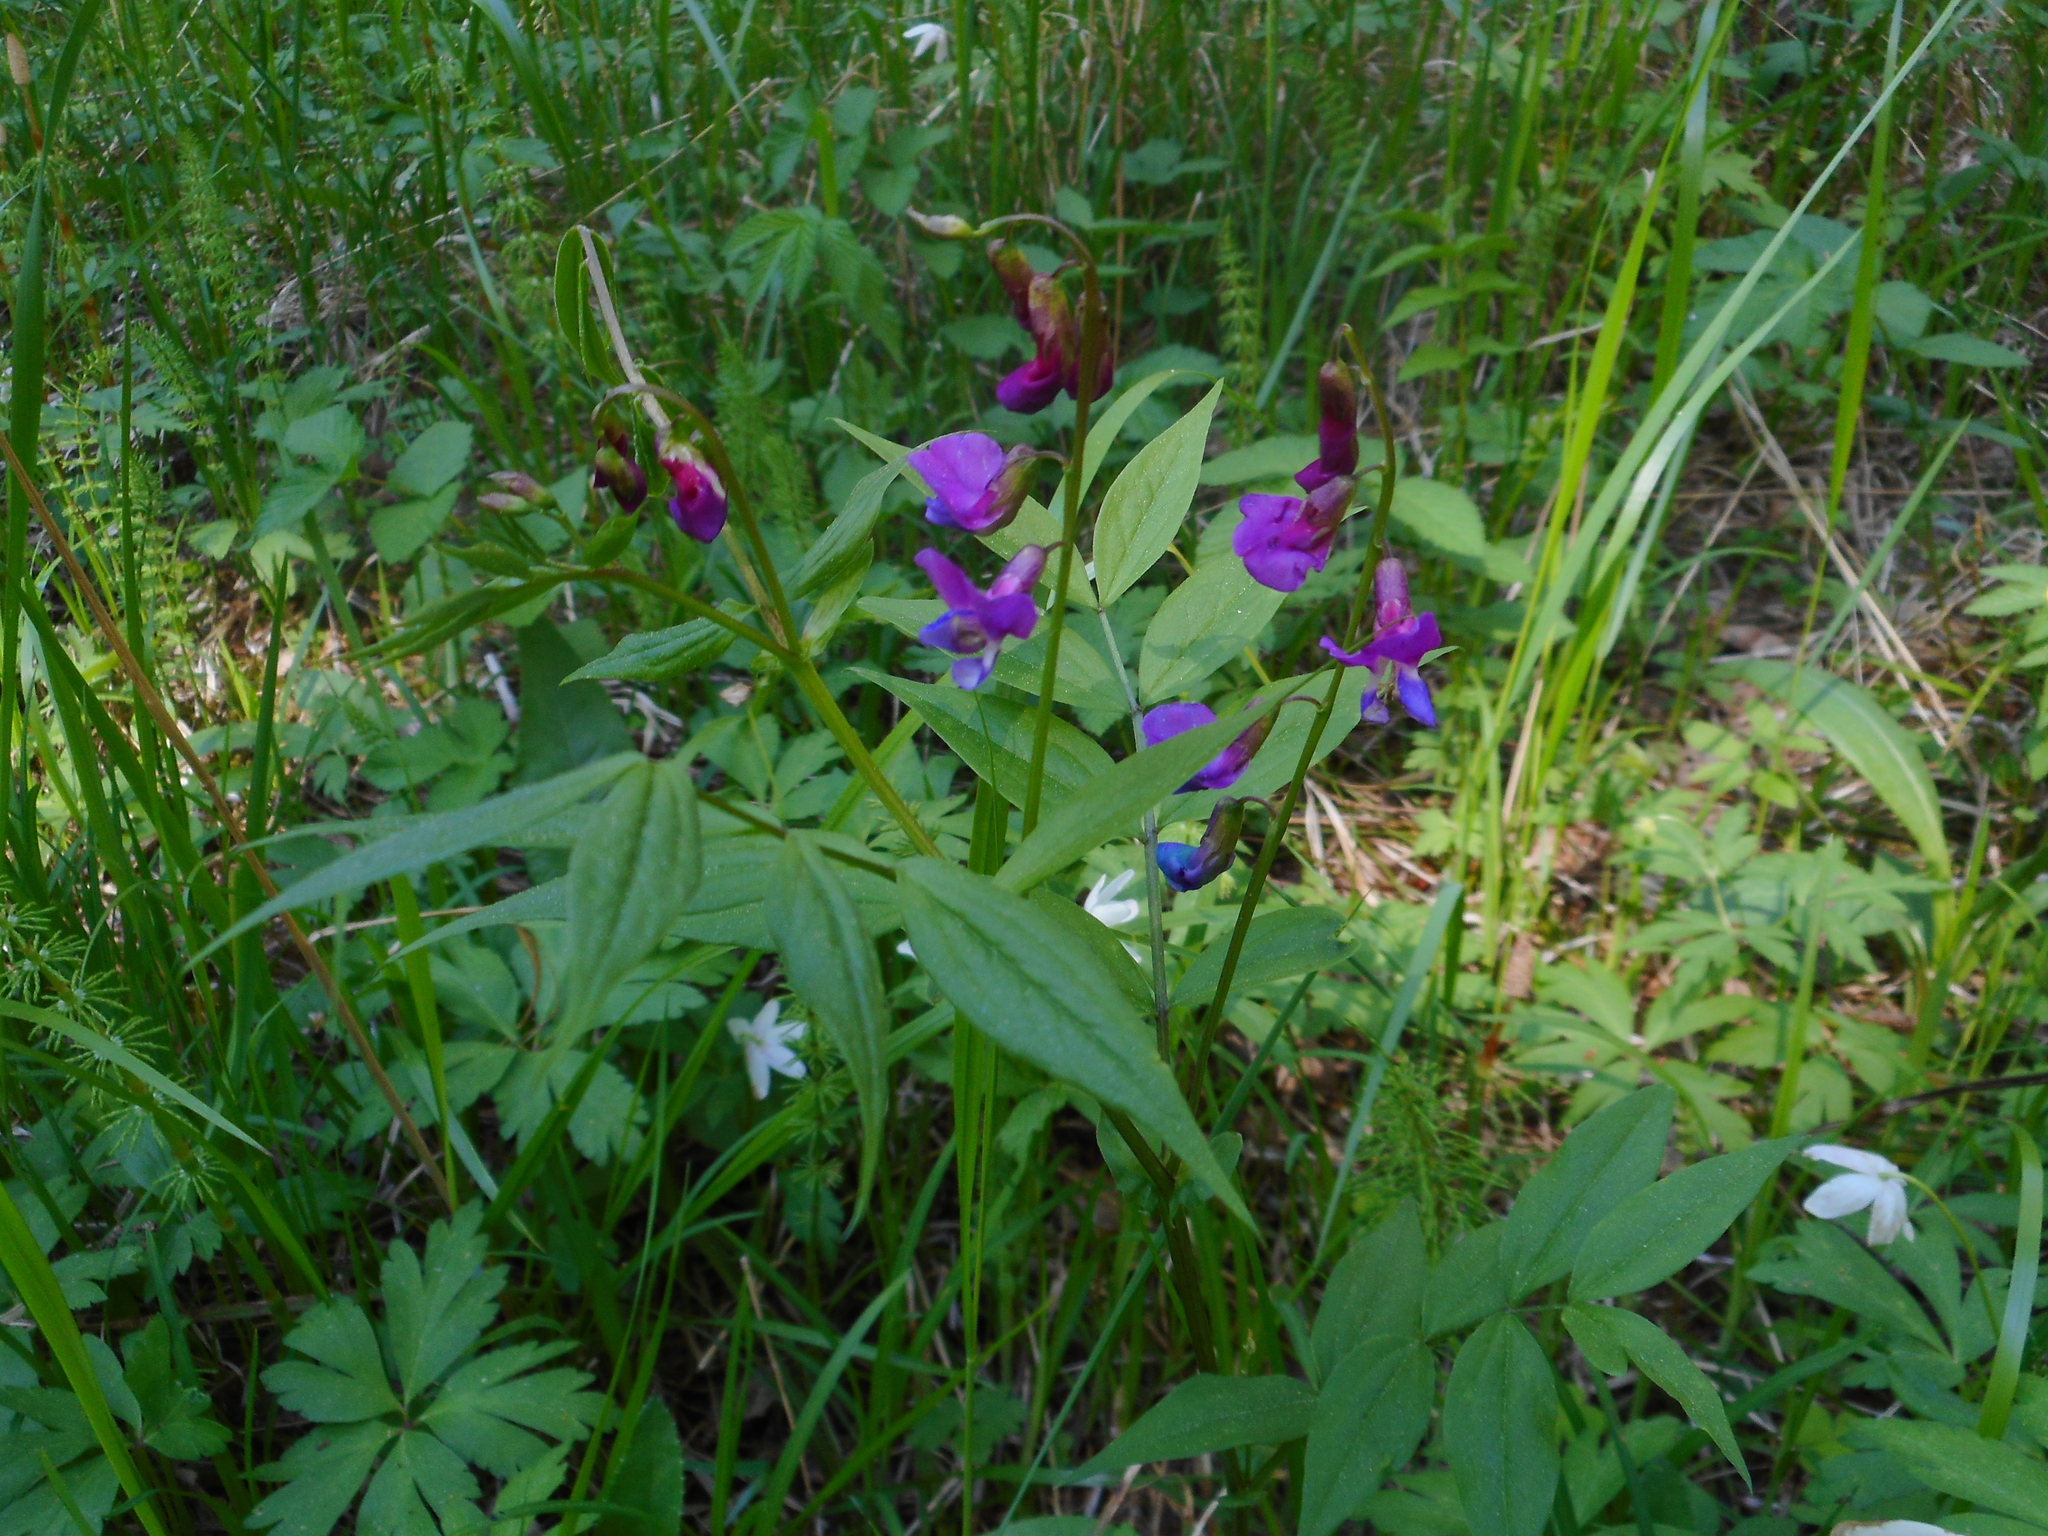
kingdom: Plantae
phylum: Tracheophyta
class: Magnoliopsida
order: Fabales
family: Fabaceae
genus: Lathyrus
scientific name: Lathyrus vernus
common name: Spring pea
